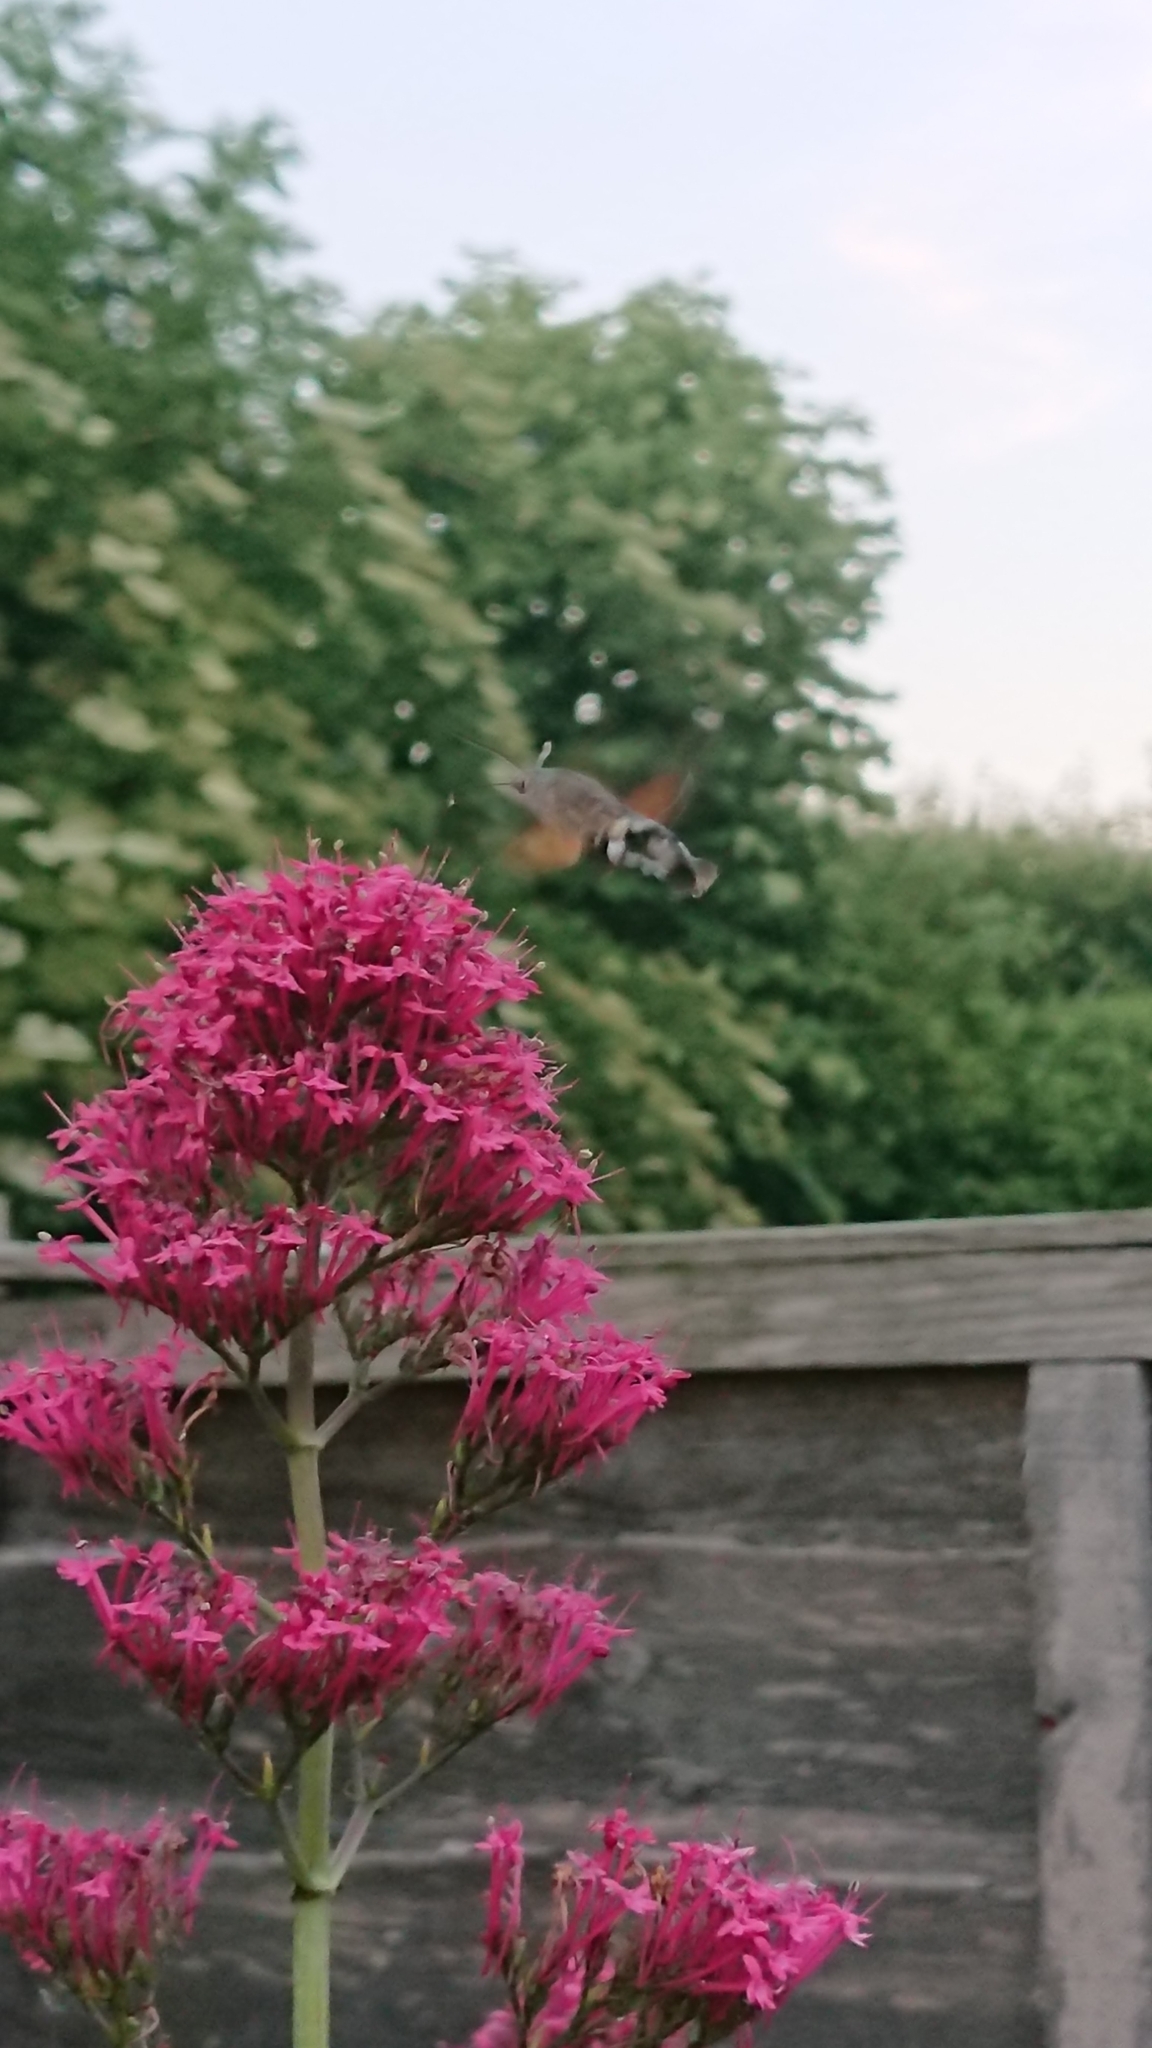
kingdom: Animalia
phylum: Arthropoda
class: Insecta
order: Lepidoptera
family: Sphingidae
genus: Macroglossum
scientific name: Macroglossum stellatarum
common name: Humming-bird hawk-moth
